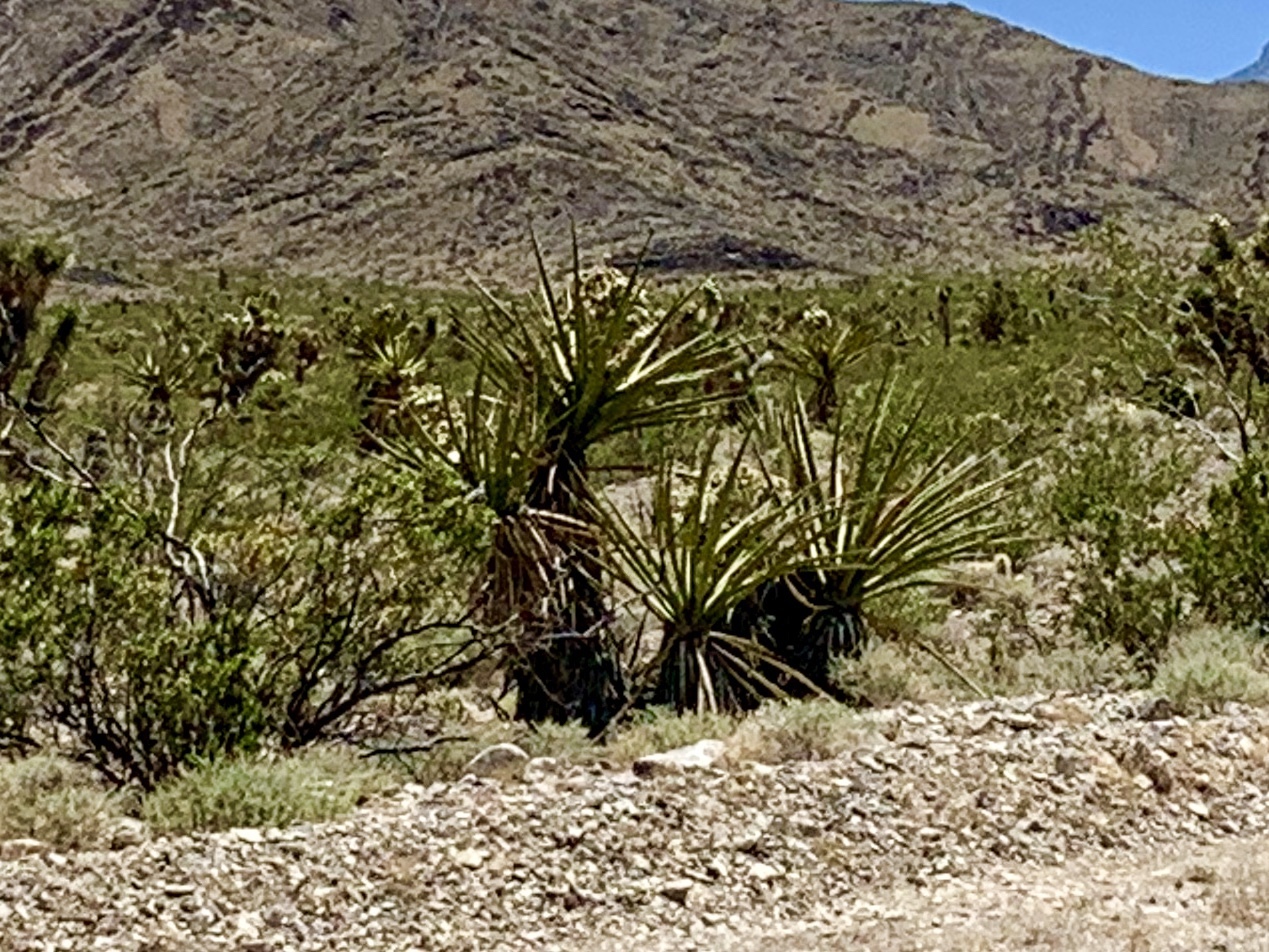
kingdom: Plantae
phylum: Tracheophyta
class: Liliopsida
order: Asparagales
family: Asparagaceae
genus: Yucca
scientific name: Yucca schidigera
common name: Mojave yucca
